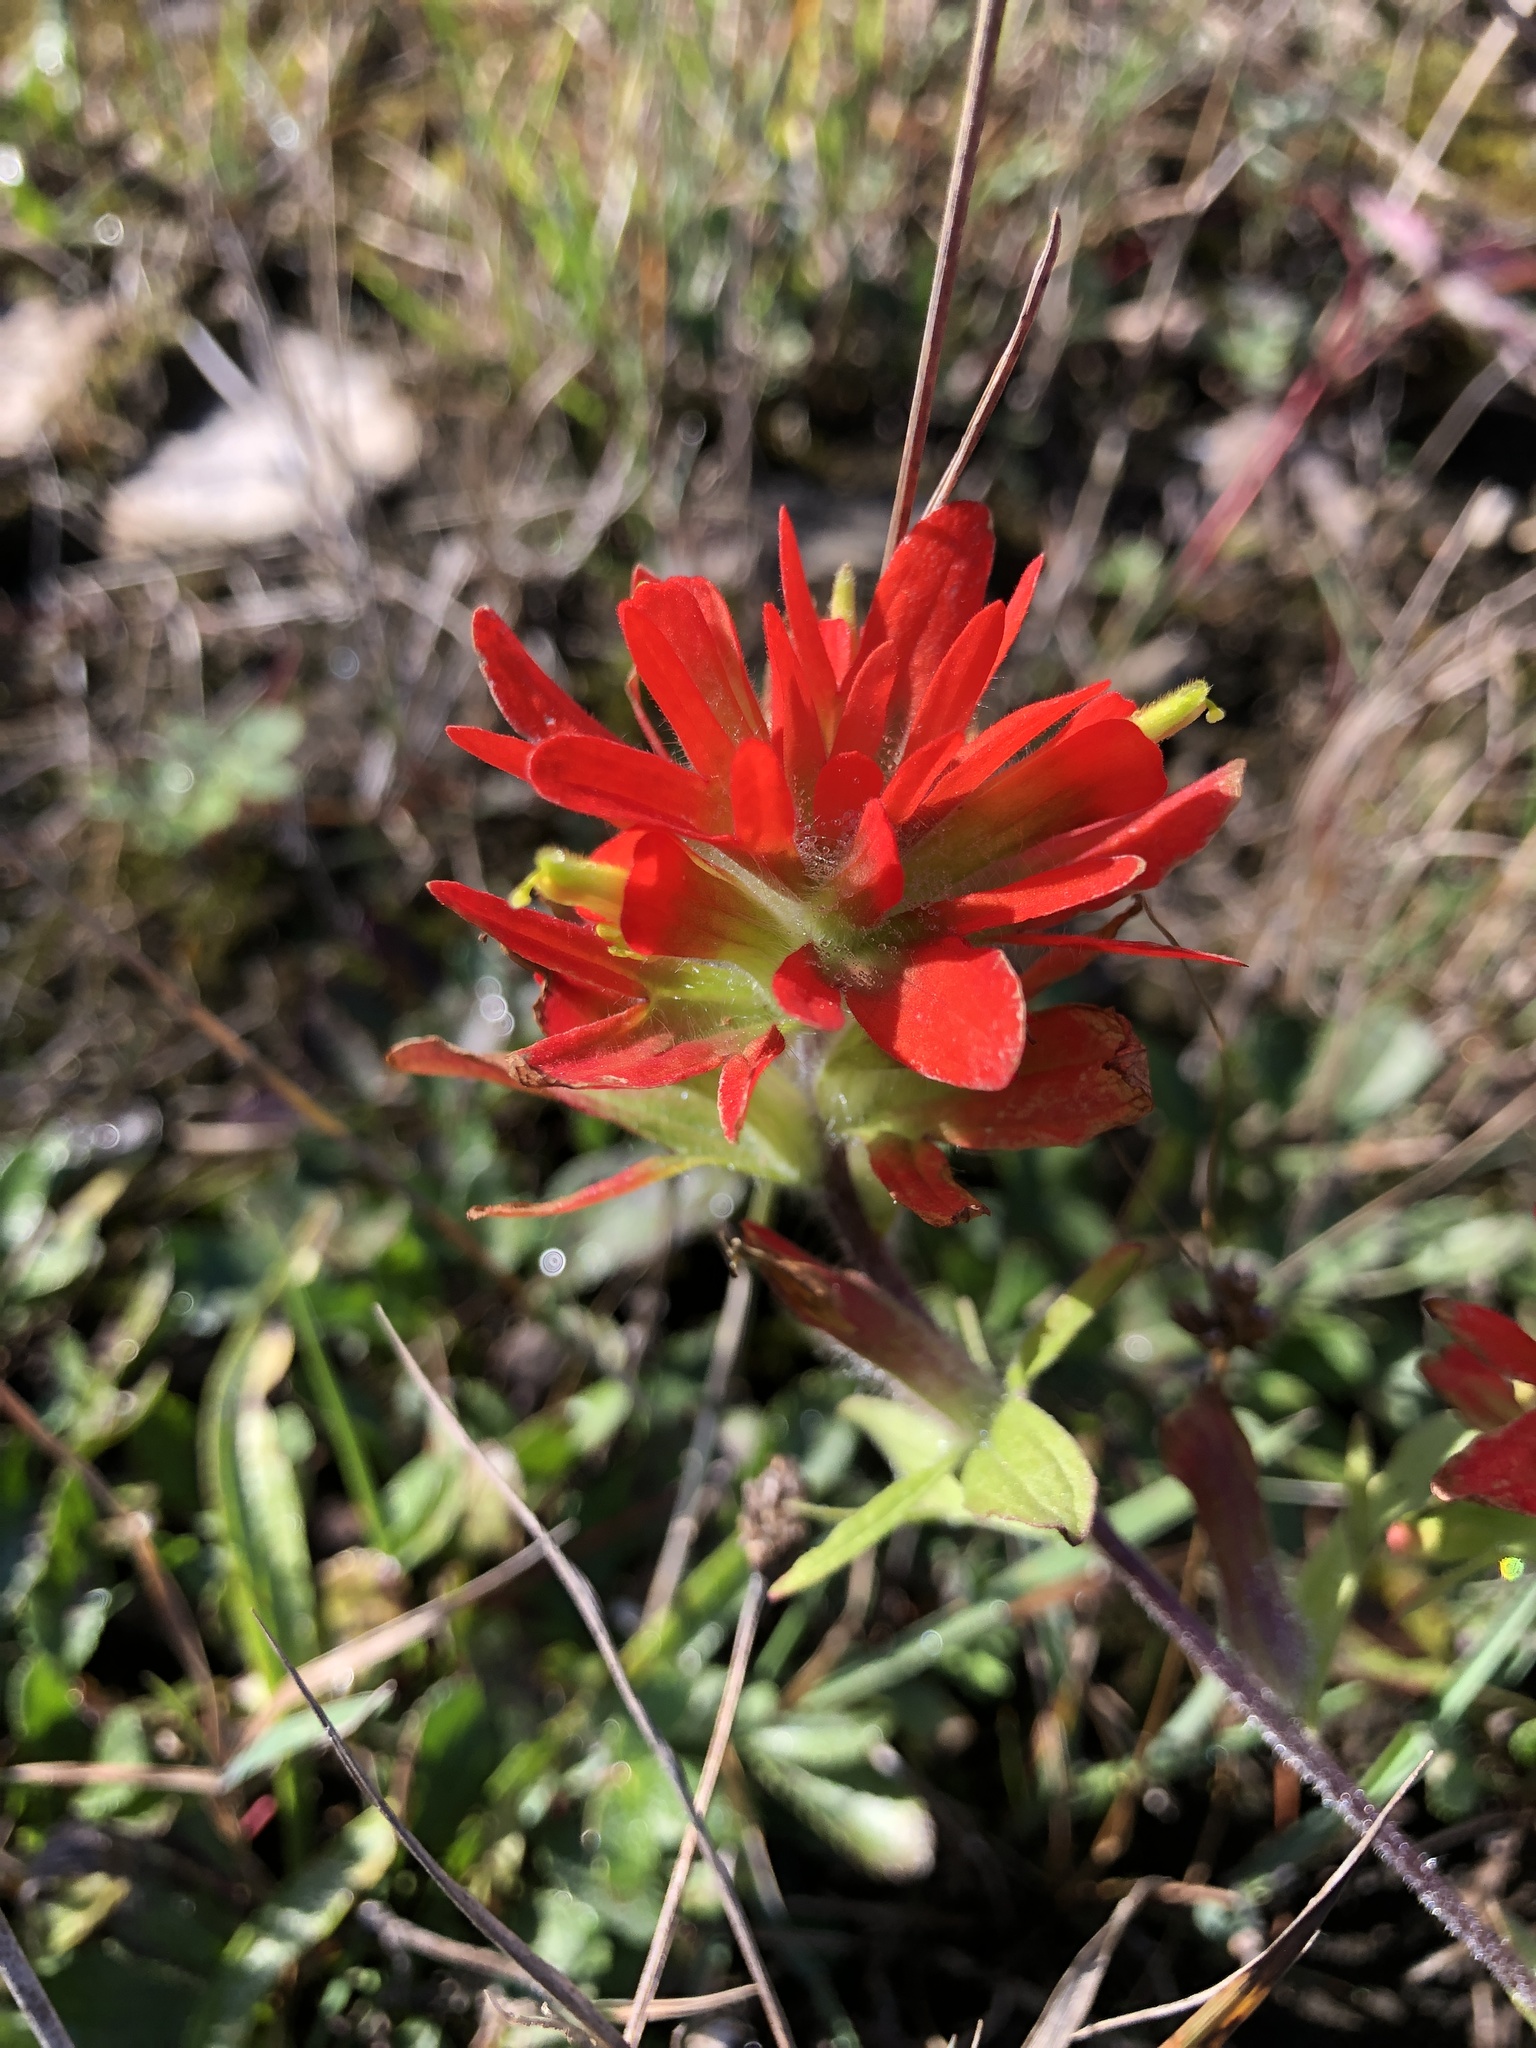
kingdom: Plantae
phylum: Tracheophyta
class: Magnoliopsida
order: Lamiales
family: Orobanchaceae
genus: Castilleja
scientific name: Castilleja coccinea
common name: Scarlet paintbrush
